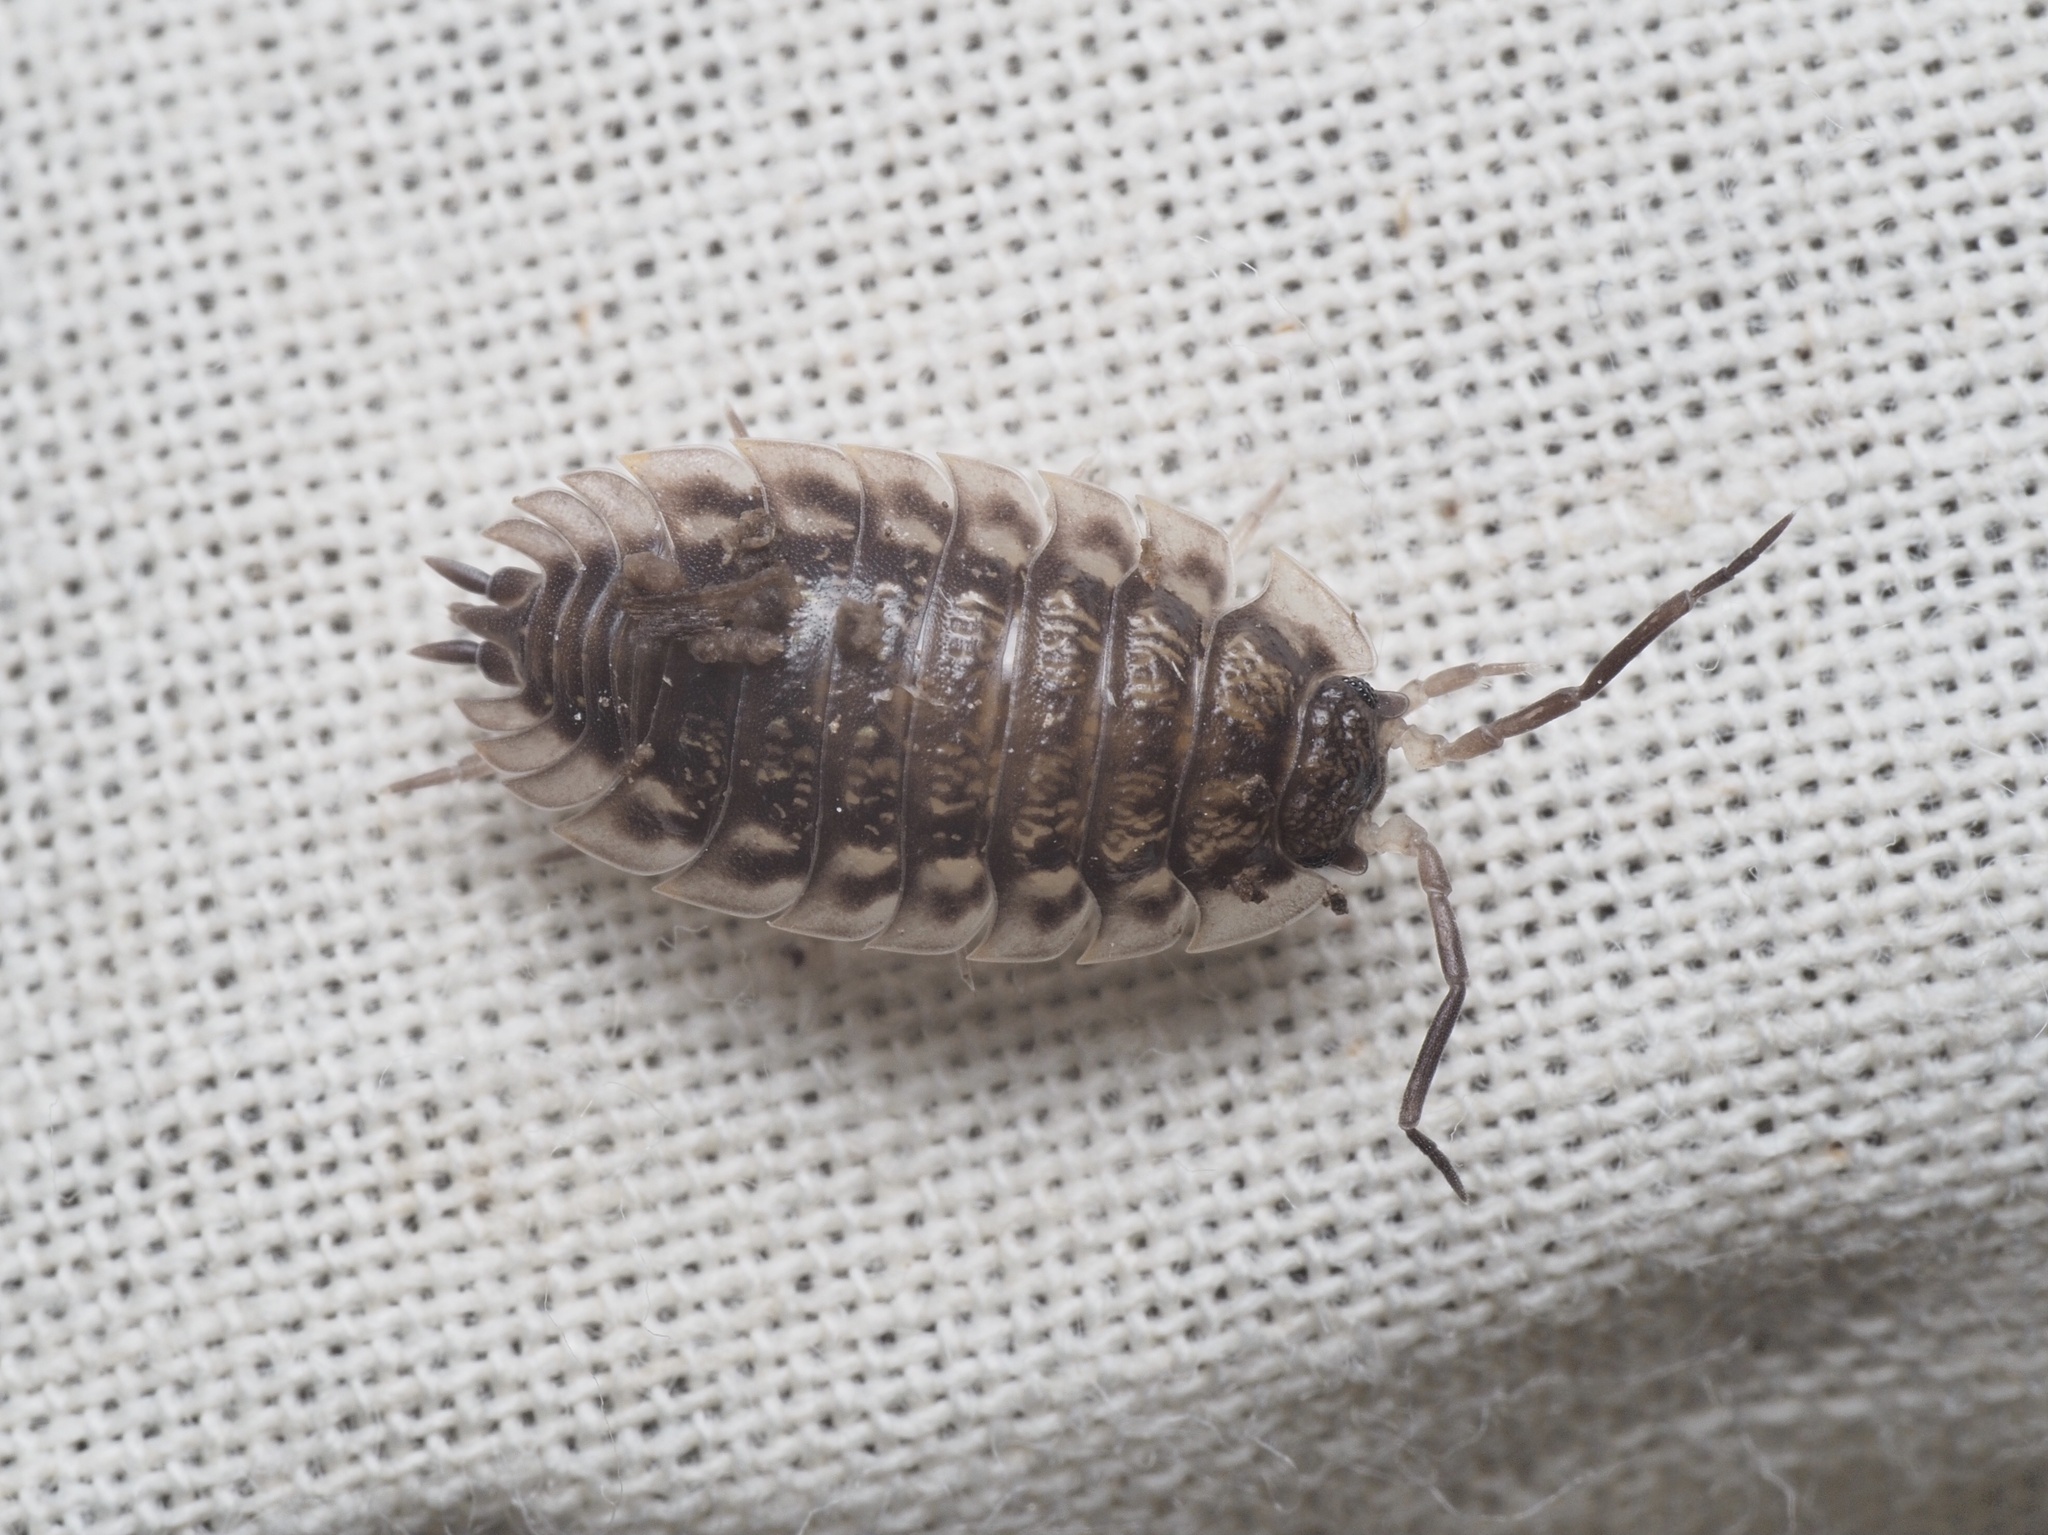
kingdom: Animalia
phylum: Arthropoda
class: Malacostraca
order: Isopoda
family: Oniscidae
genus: Oniscus
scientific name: Oniscus asellus
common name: Common shiny woodlouse
